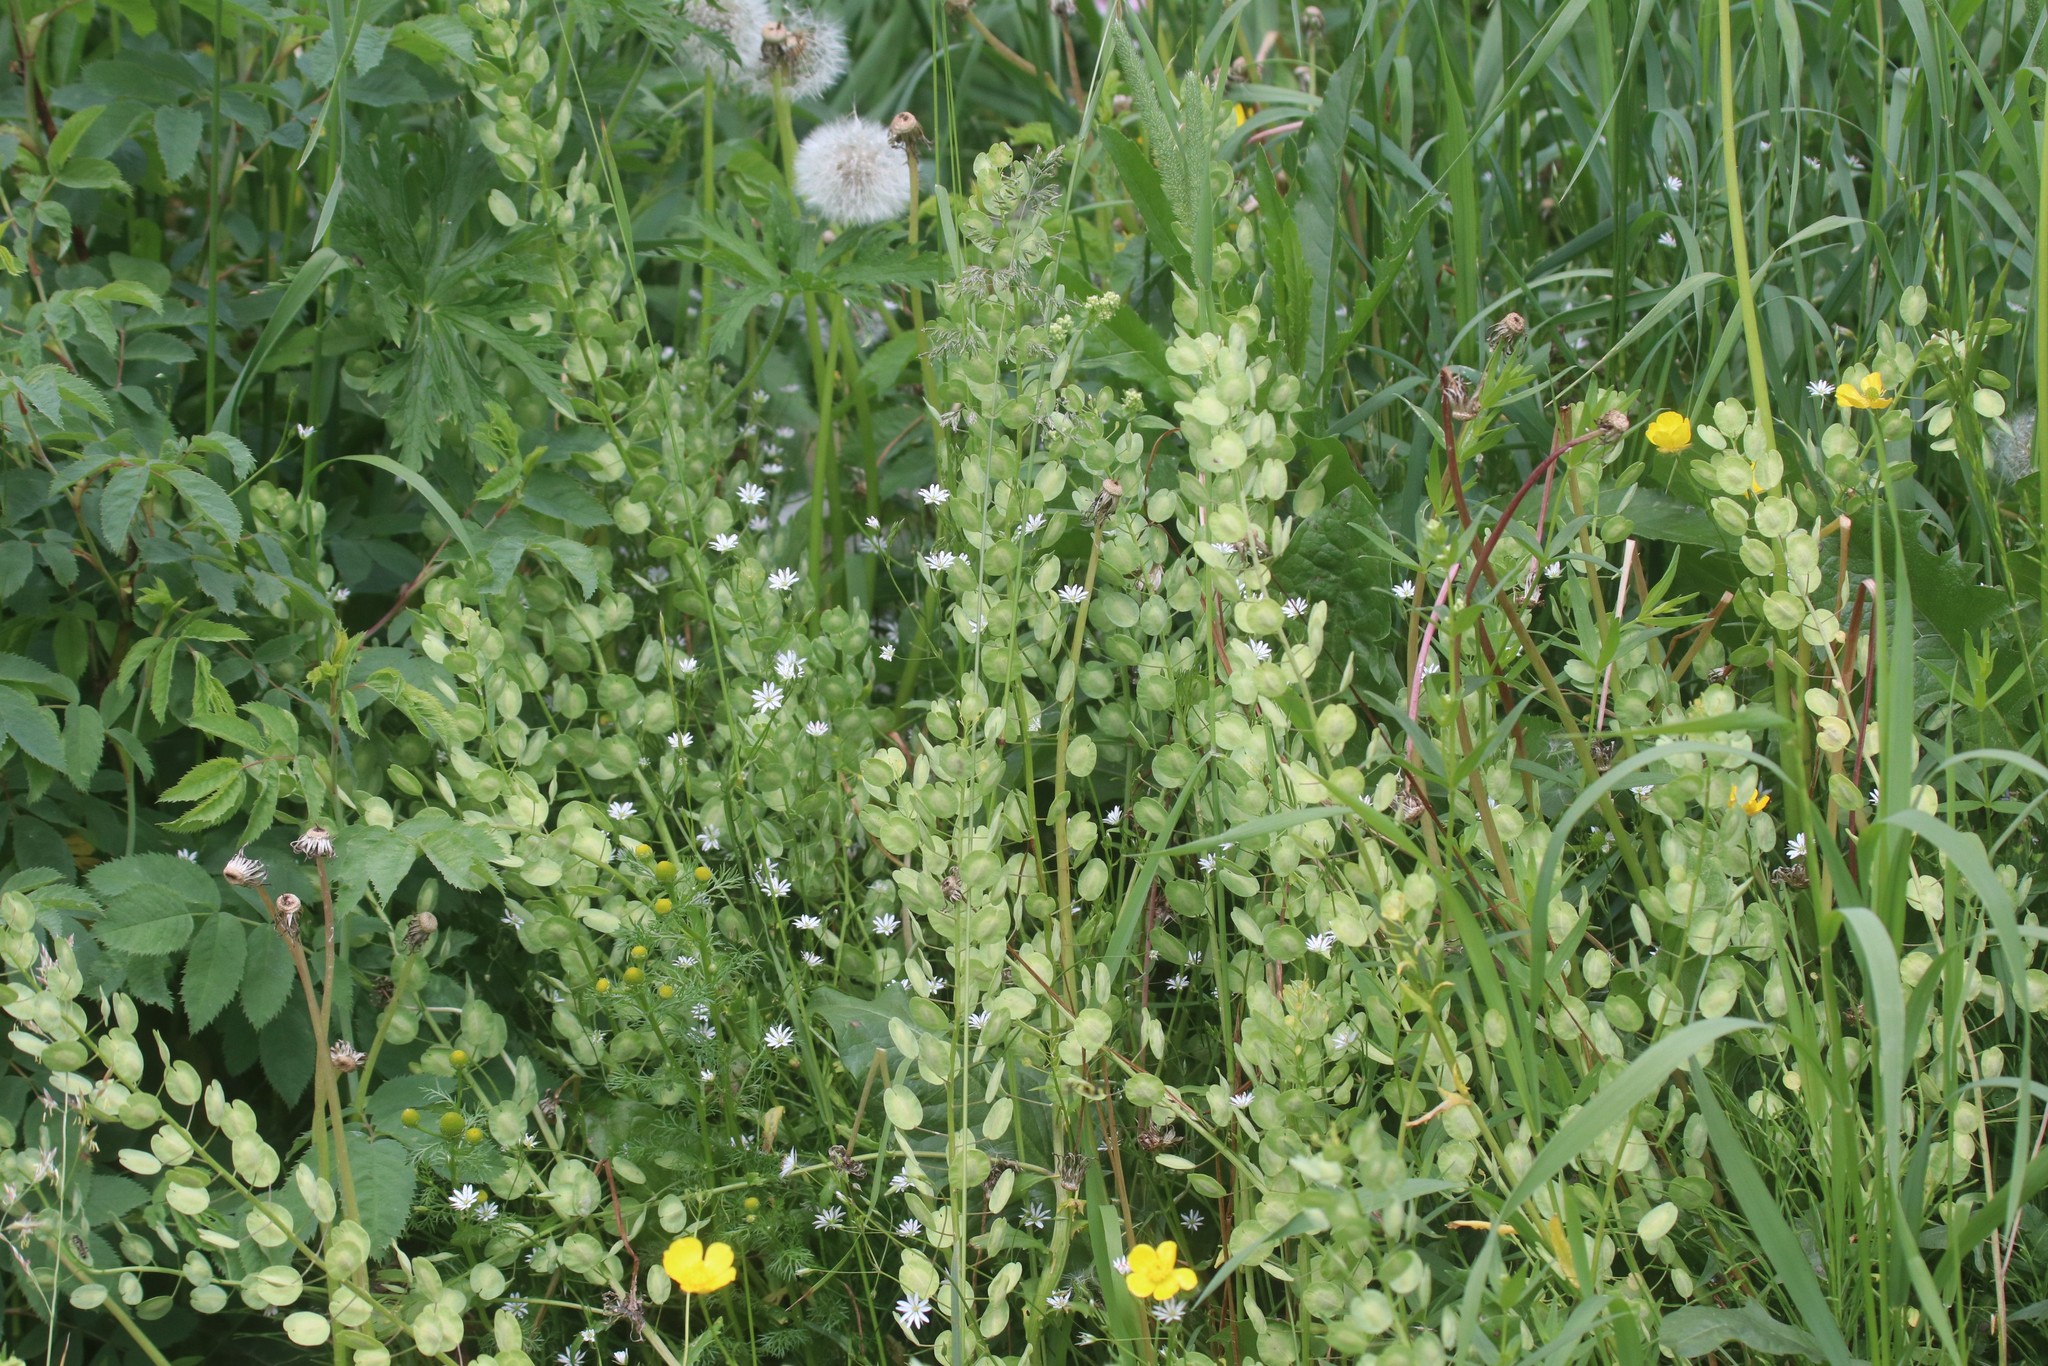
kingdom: Plantae
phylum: Tracheophyta
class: Magnoliopsida
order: Brassicales
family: Brassicaceae
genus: Thlaspi
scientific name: Thlaspi arvense
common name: Field pennycress
